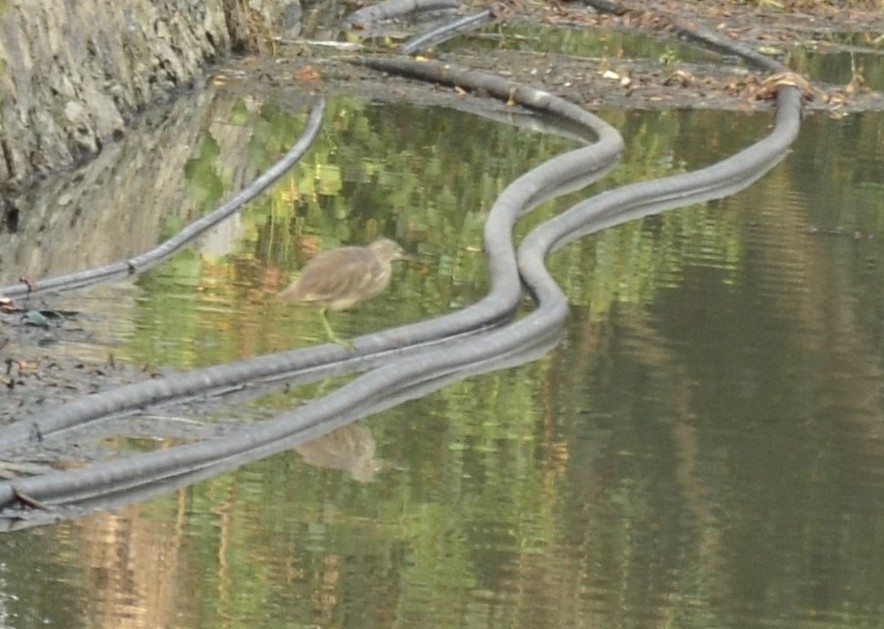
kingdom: Animalia
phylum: Chordata
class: Aves
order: Pelecaniformes
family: Ardeidae
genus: Ardeola
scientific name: Ardeola grayii
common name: Indian pond heron
